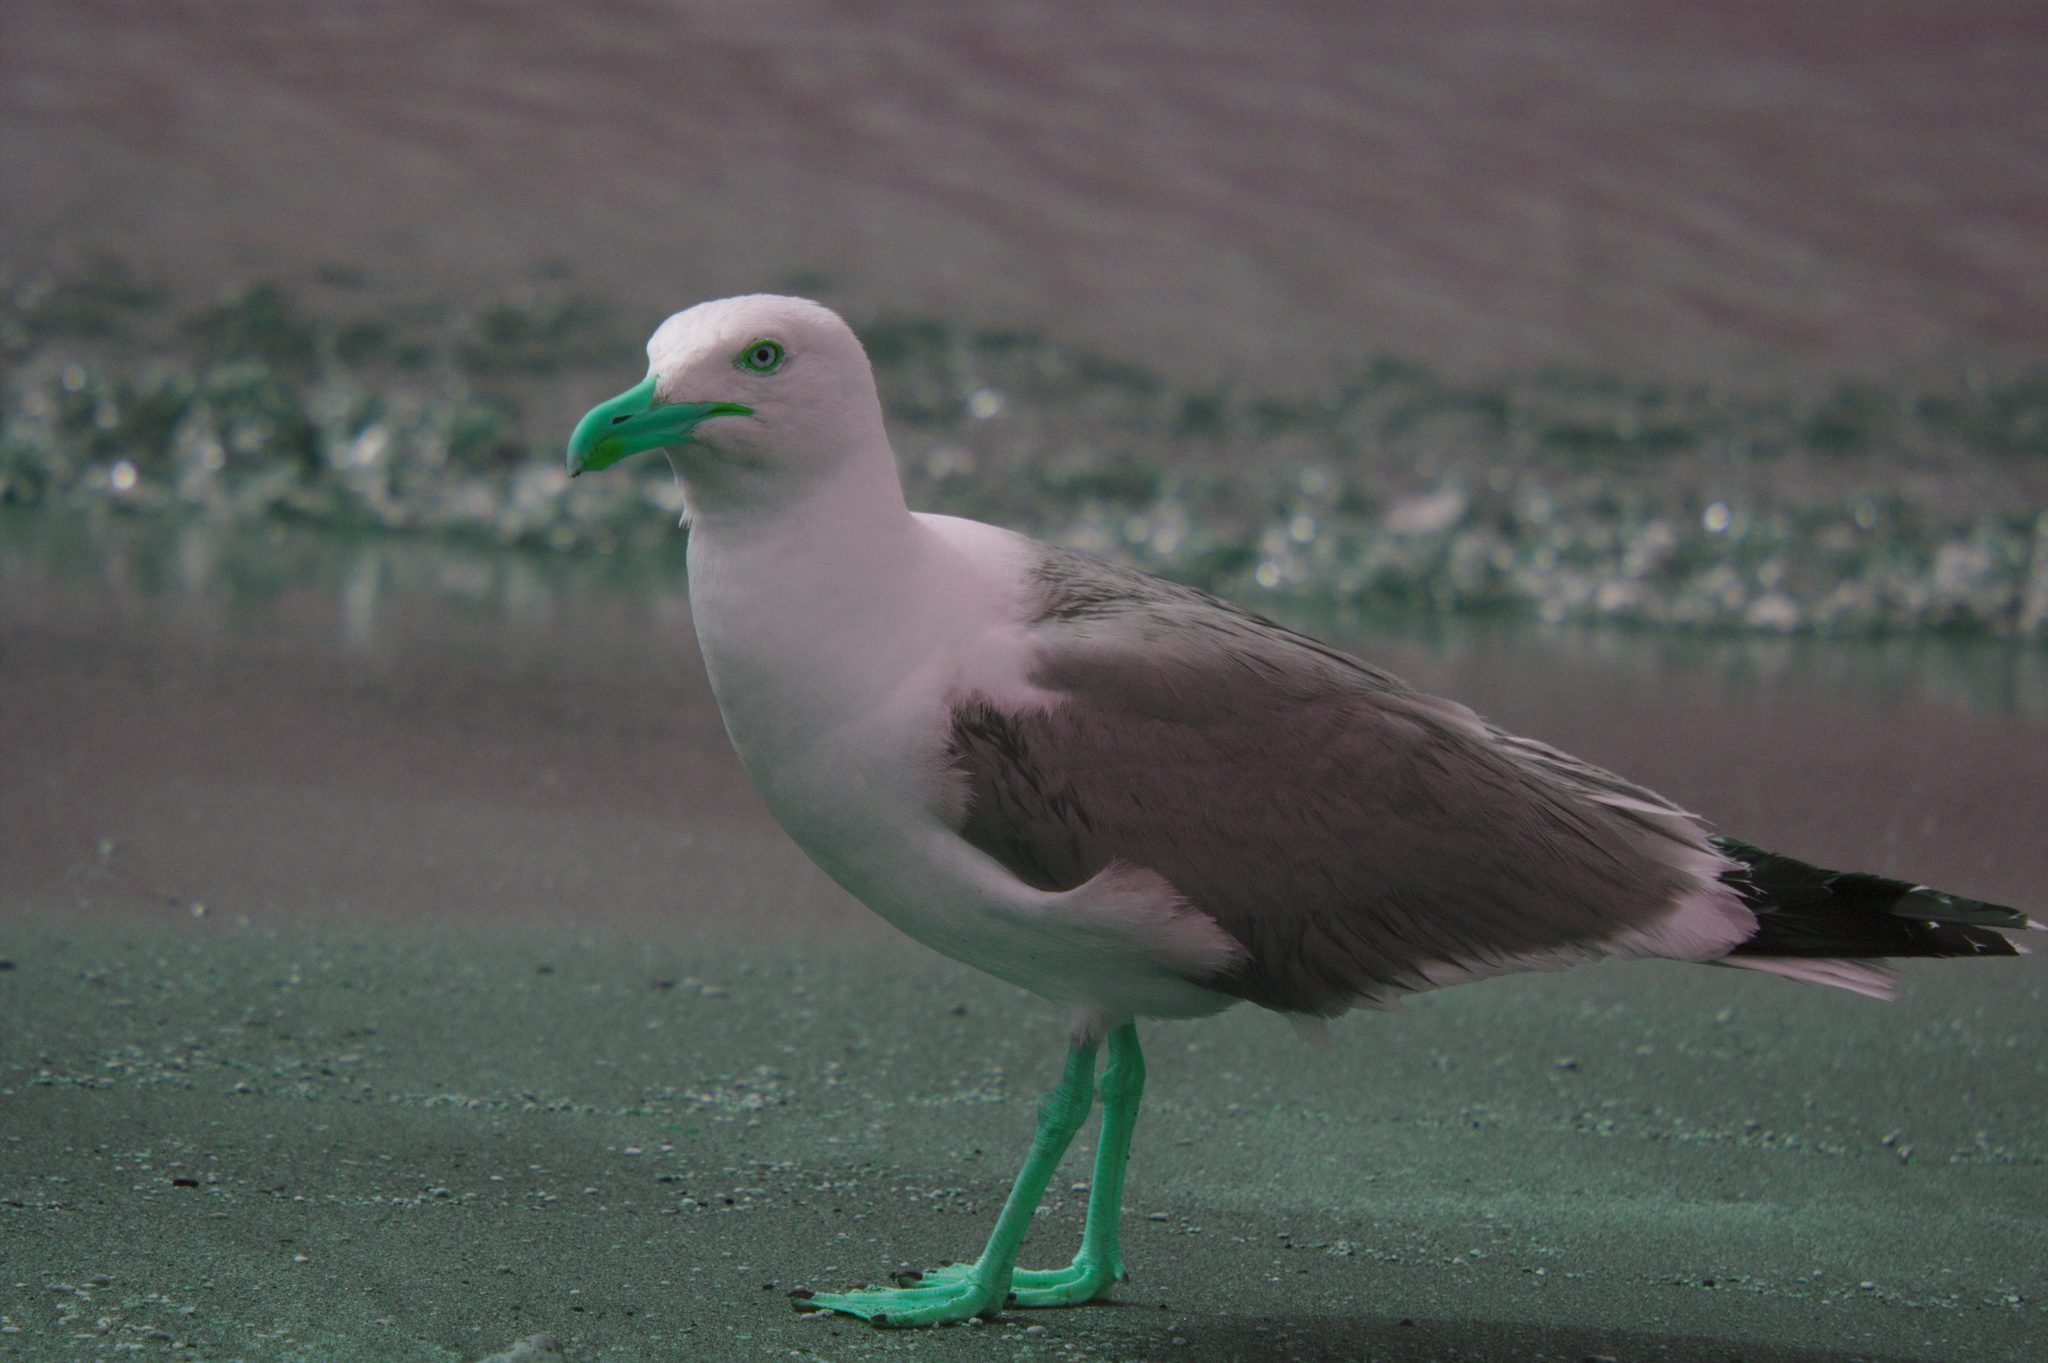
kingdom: Animalia
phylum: Chordata
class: Aves
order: Charadriiformes
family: Laridae
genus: Larus
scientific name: Larus michahellis
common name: Yellow-legged gull
